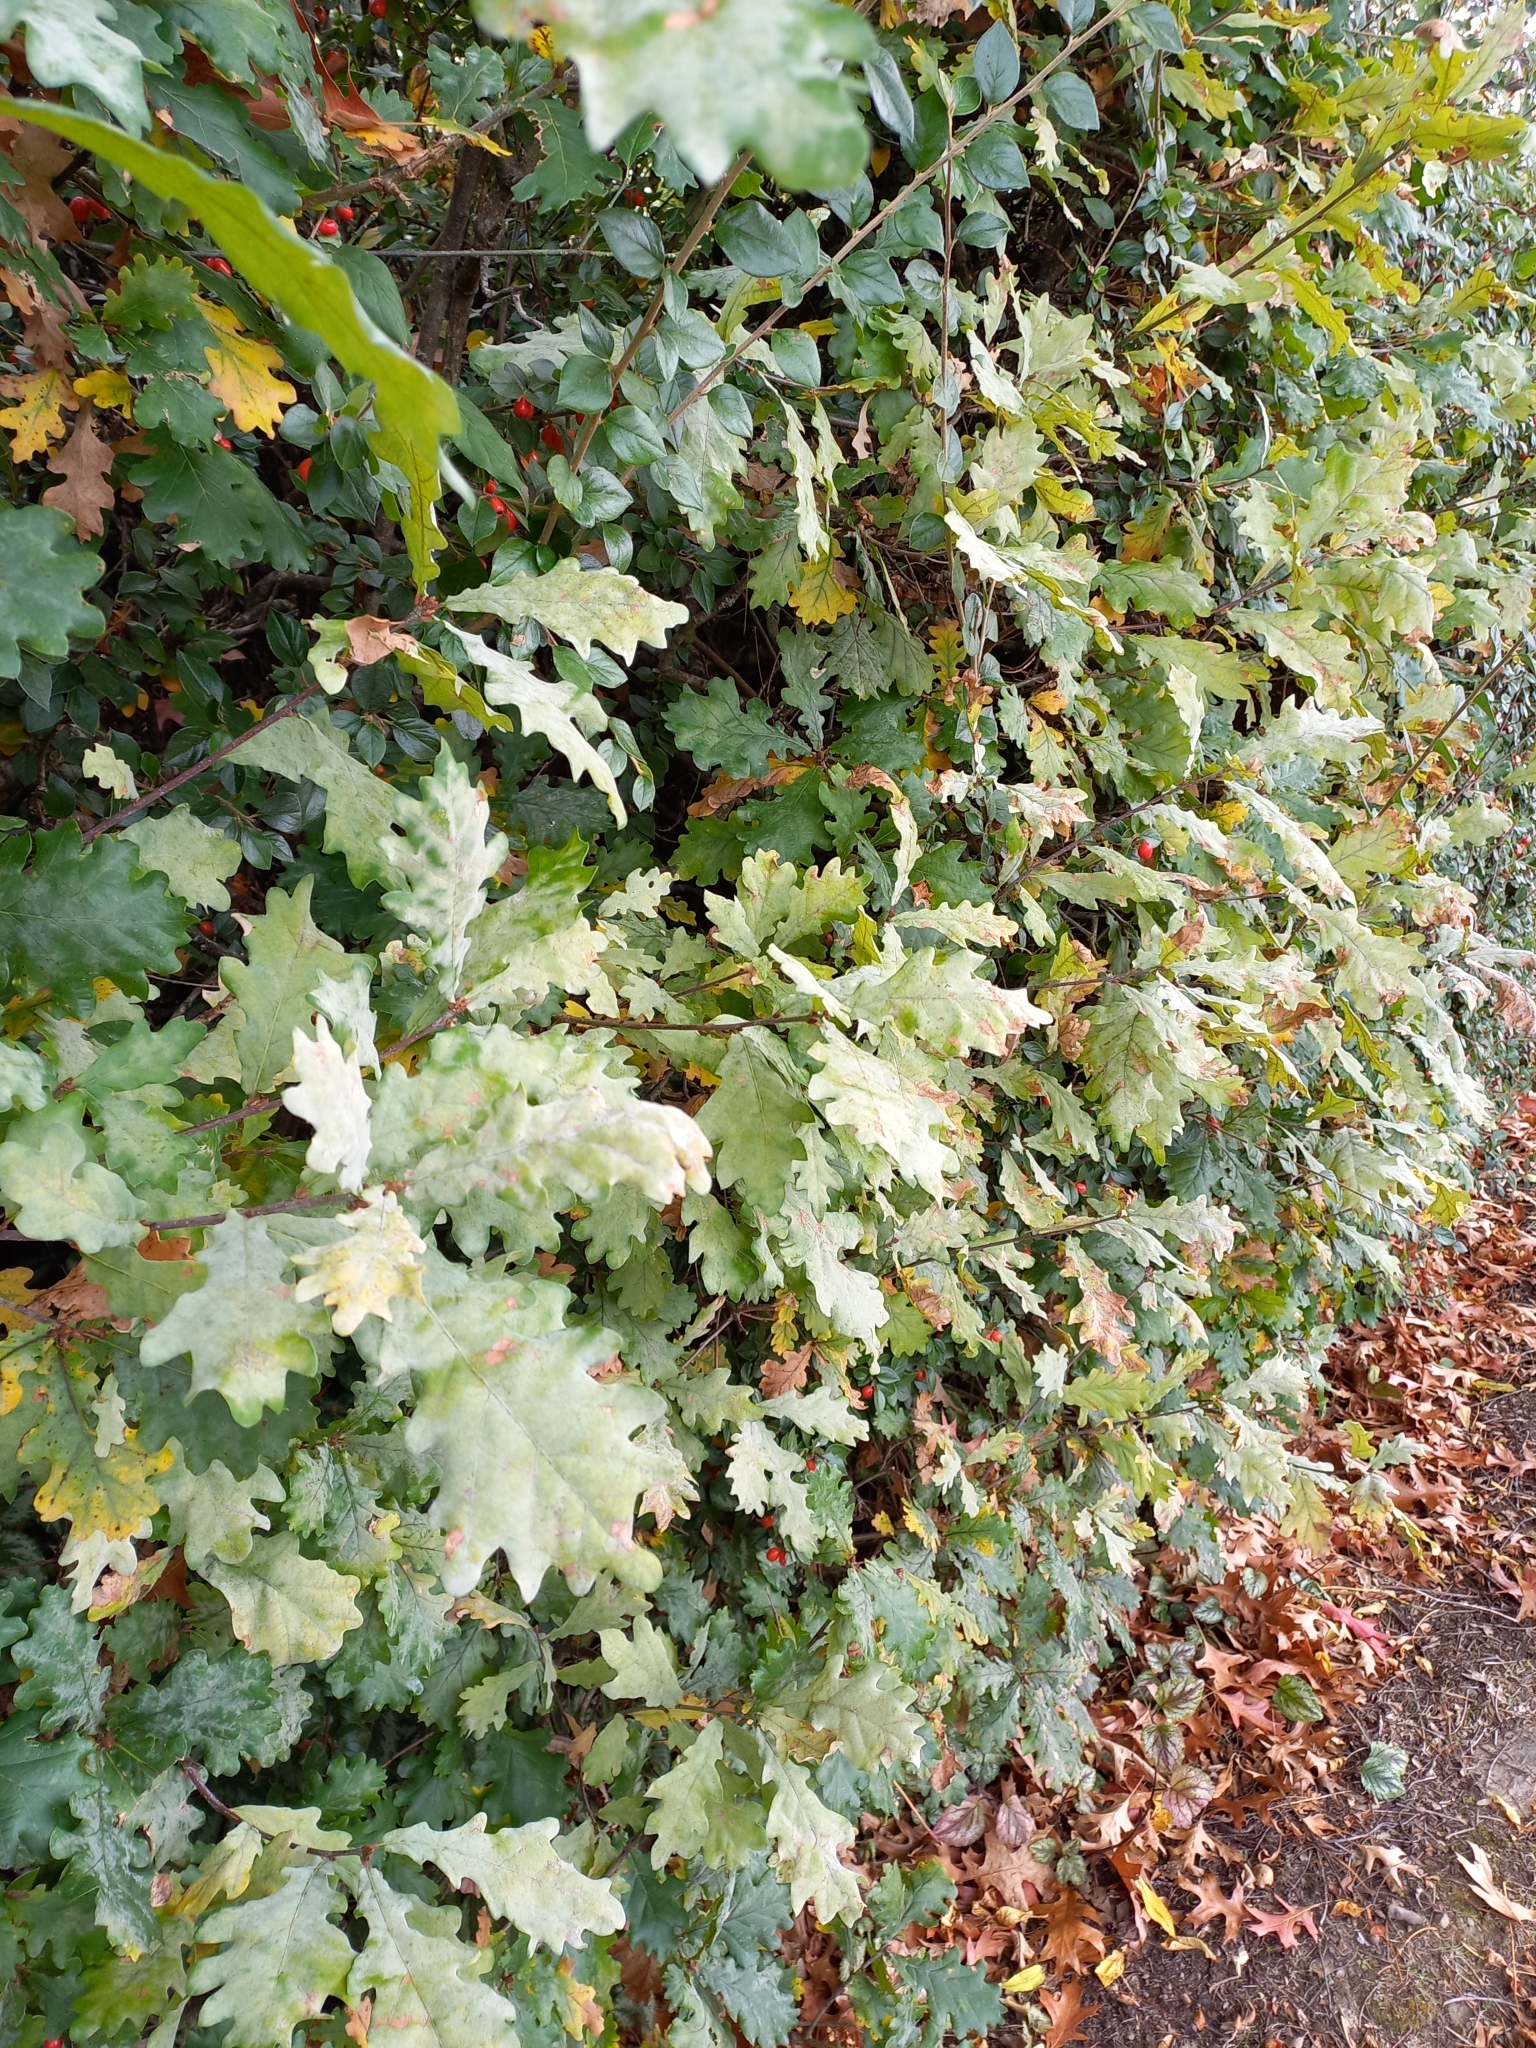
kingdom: Plantae
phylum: Tracheophyta
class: Magnoliopsida
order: Fagales
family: Fagaceae
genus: Quercus
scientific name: Quercus robur
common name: Pedunculate oak
